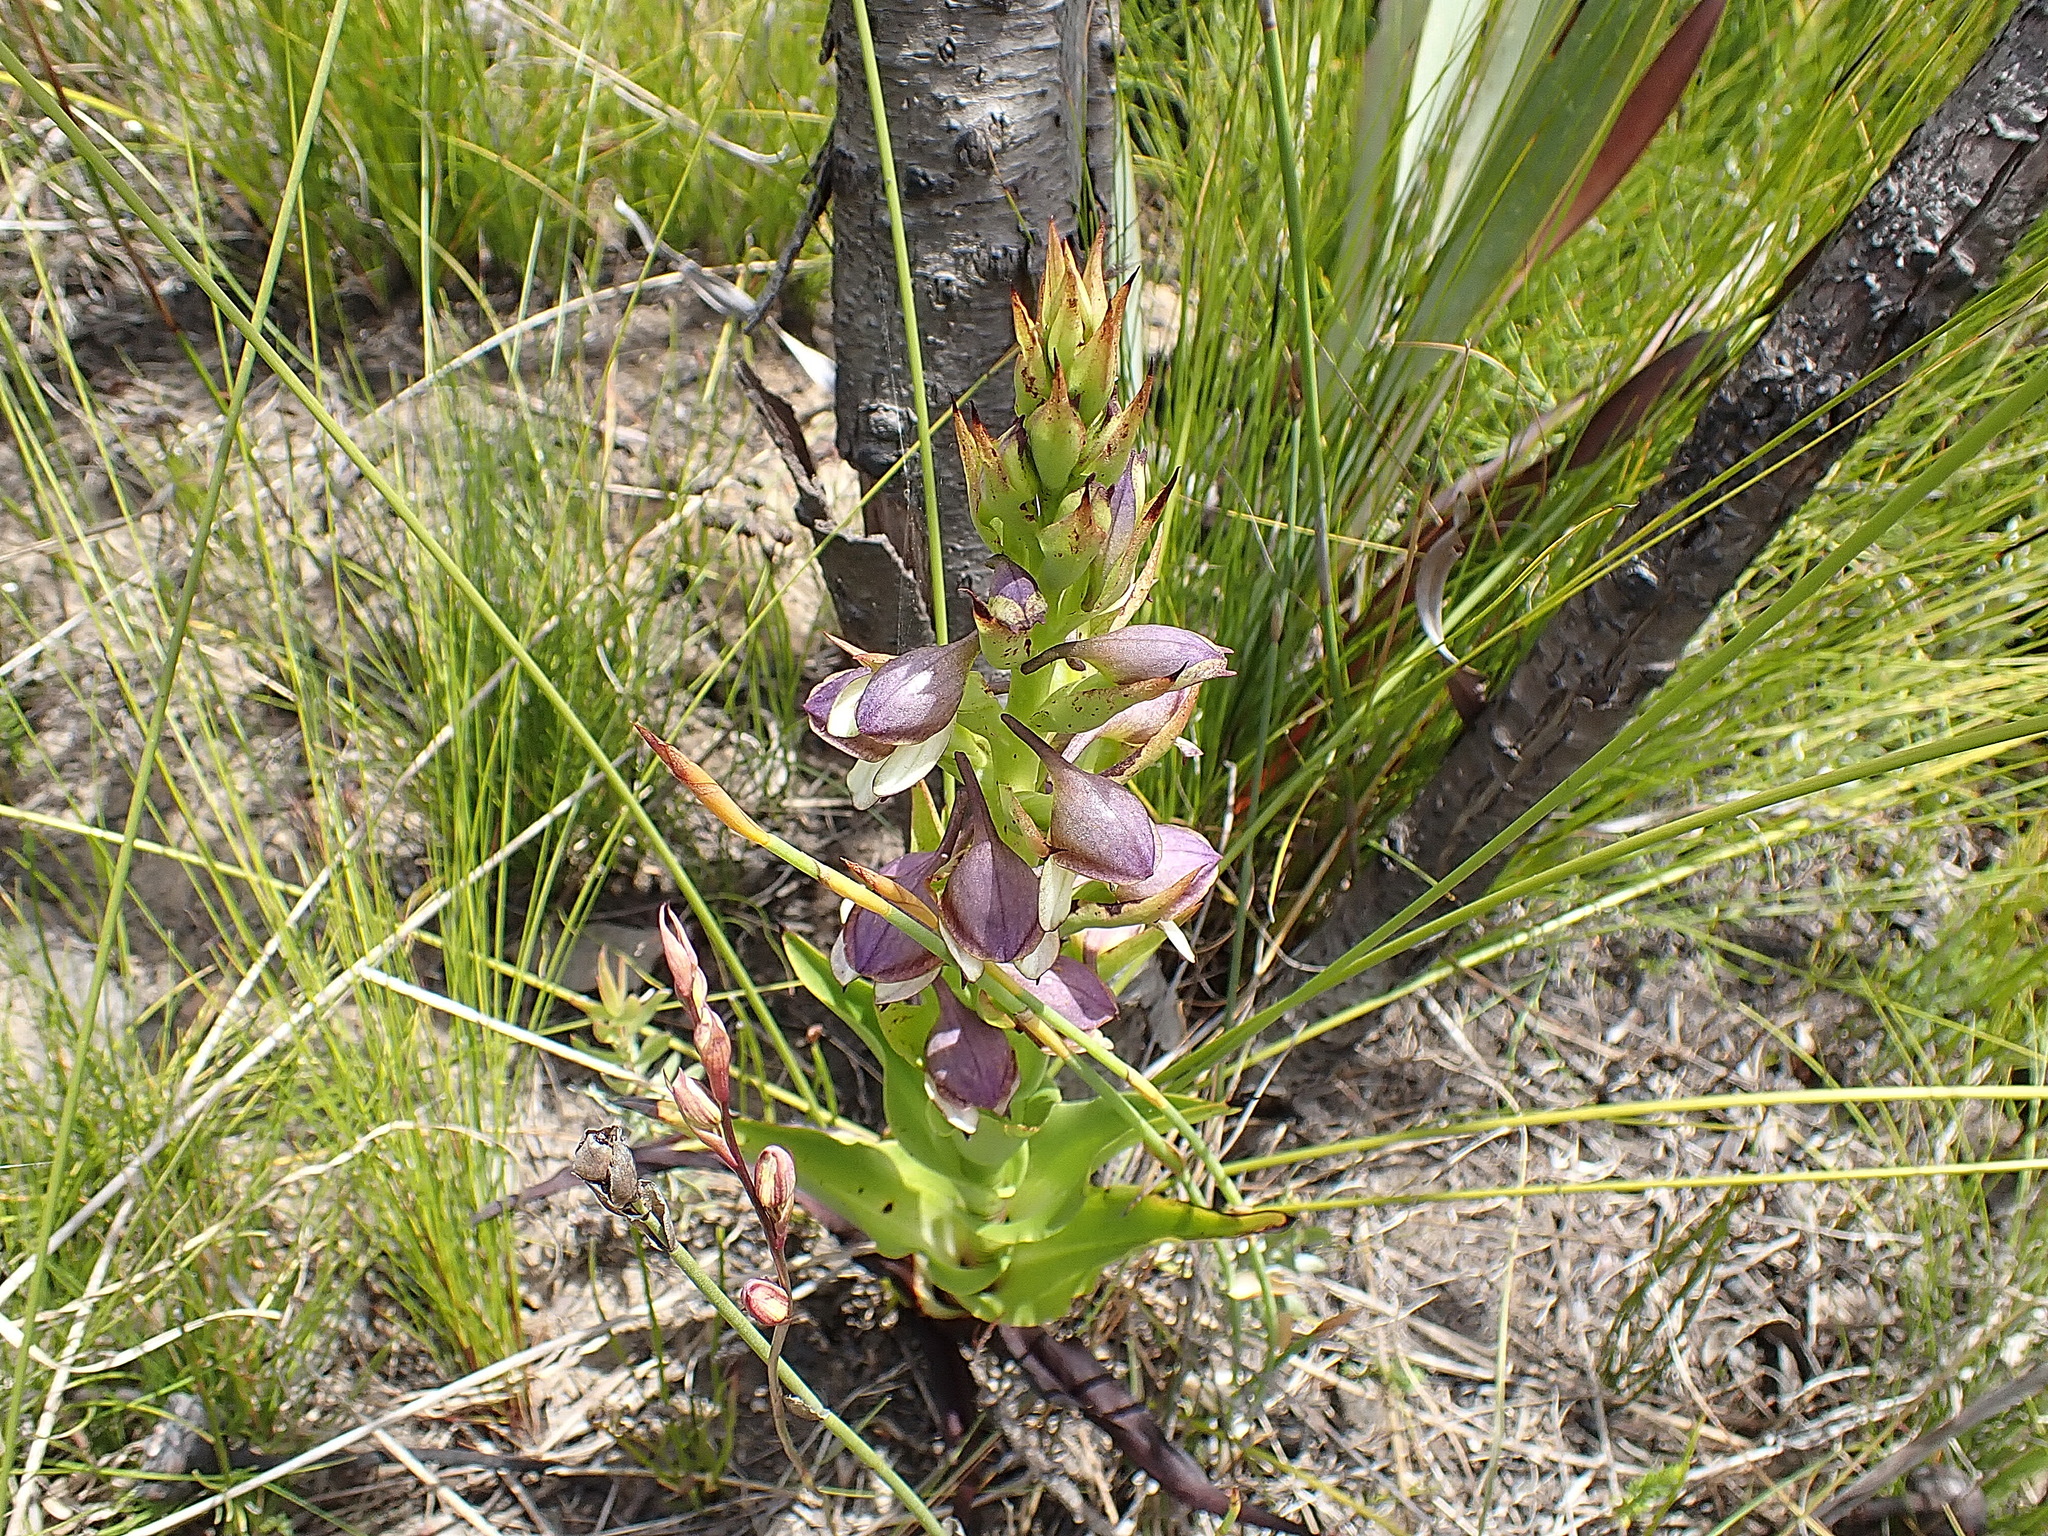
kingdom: Plantae
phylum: Tracheophyta
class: Liliopsida
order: Asparagales
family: Orchidaceae
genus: Disa
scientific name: Disa cornuta
